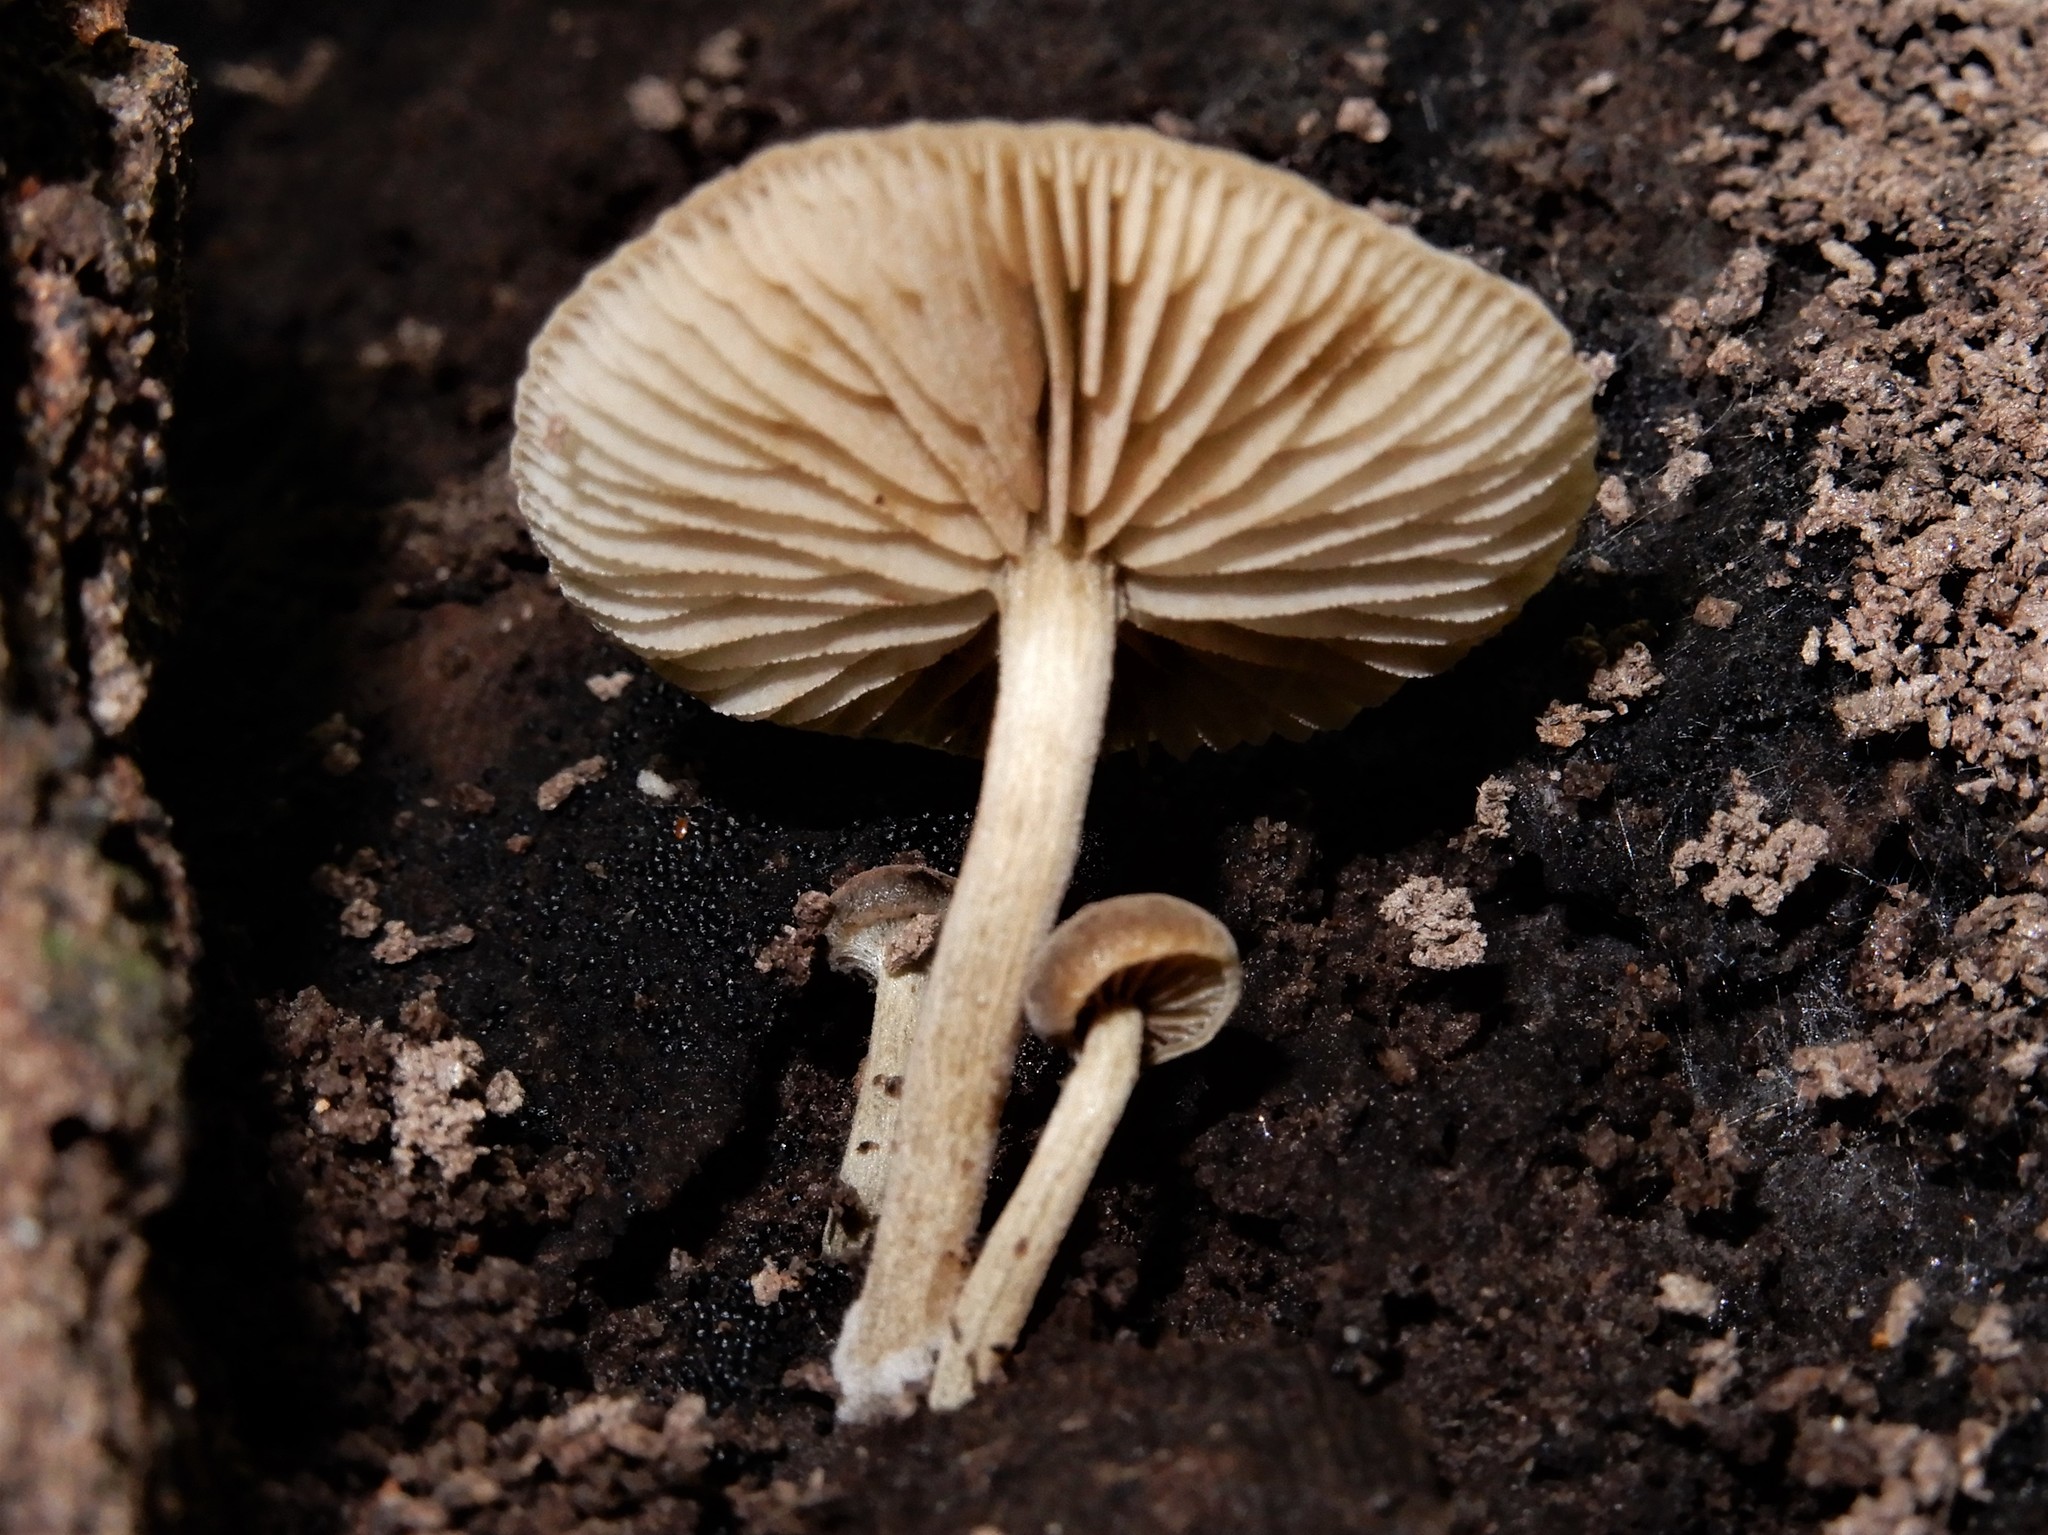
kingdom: Fungi
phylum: Basidiomycota
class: Agaricomycetes
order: Agaricales
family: Crepidotaceae
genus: Simocybe
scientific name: Simocybe largispora
